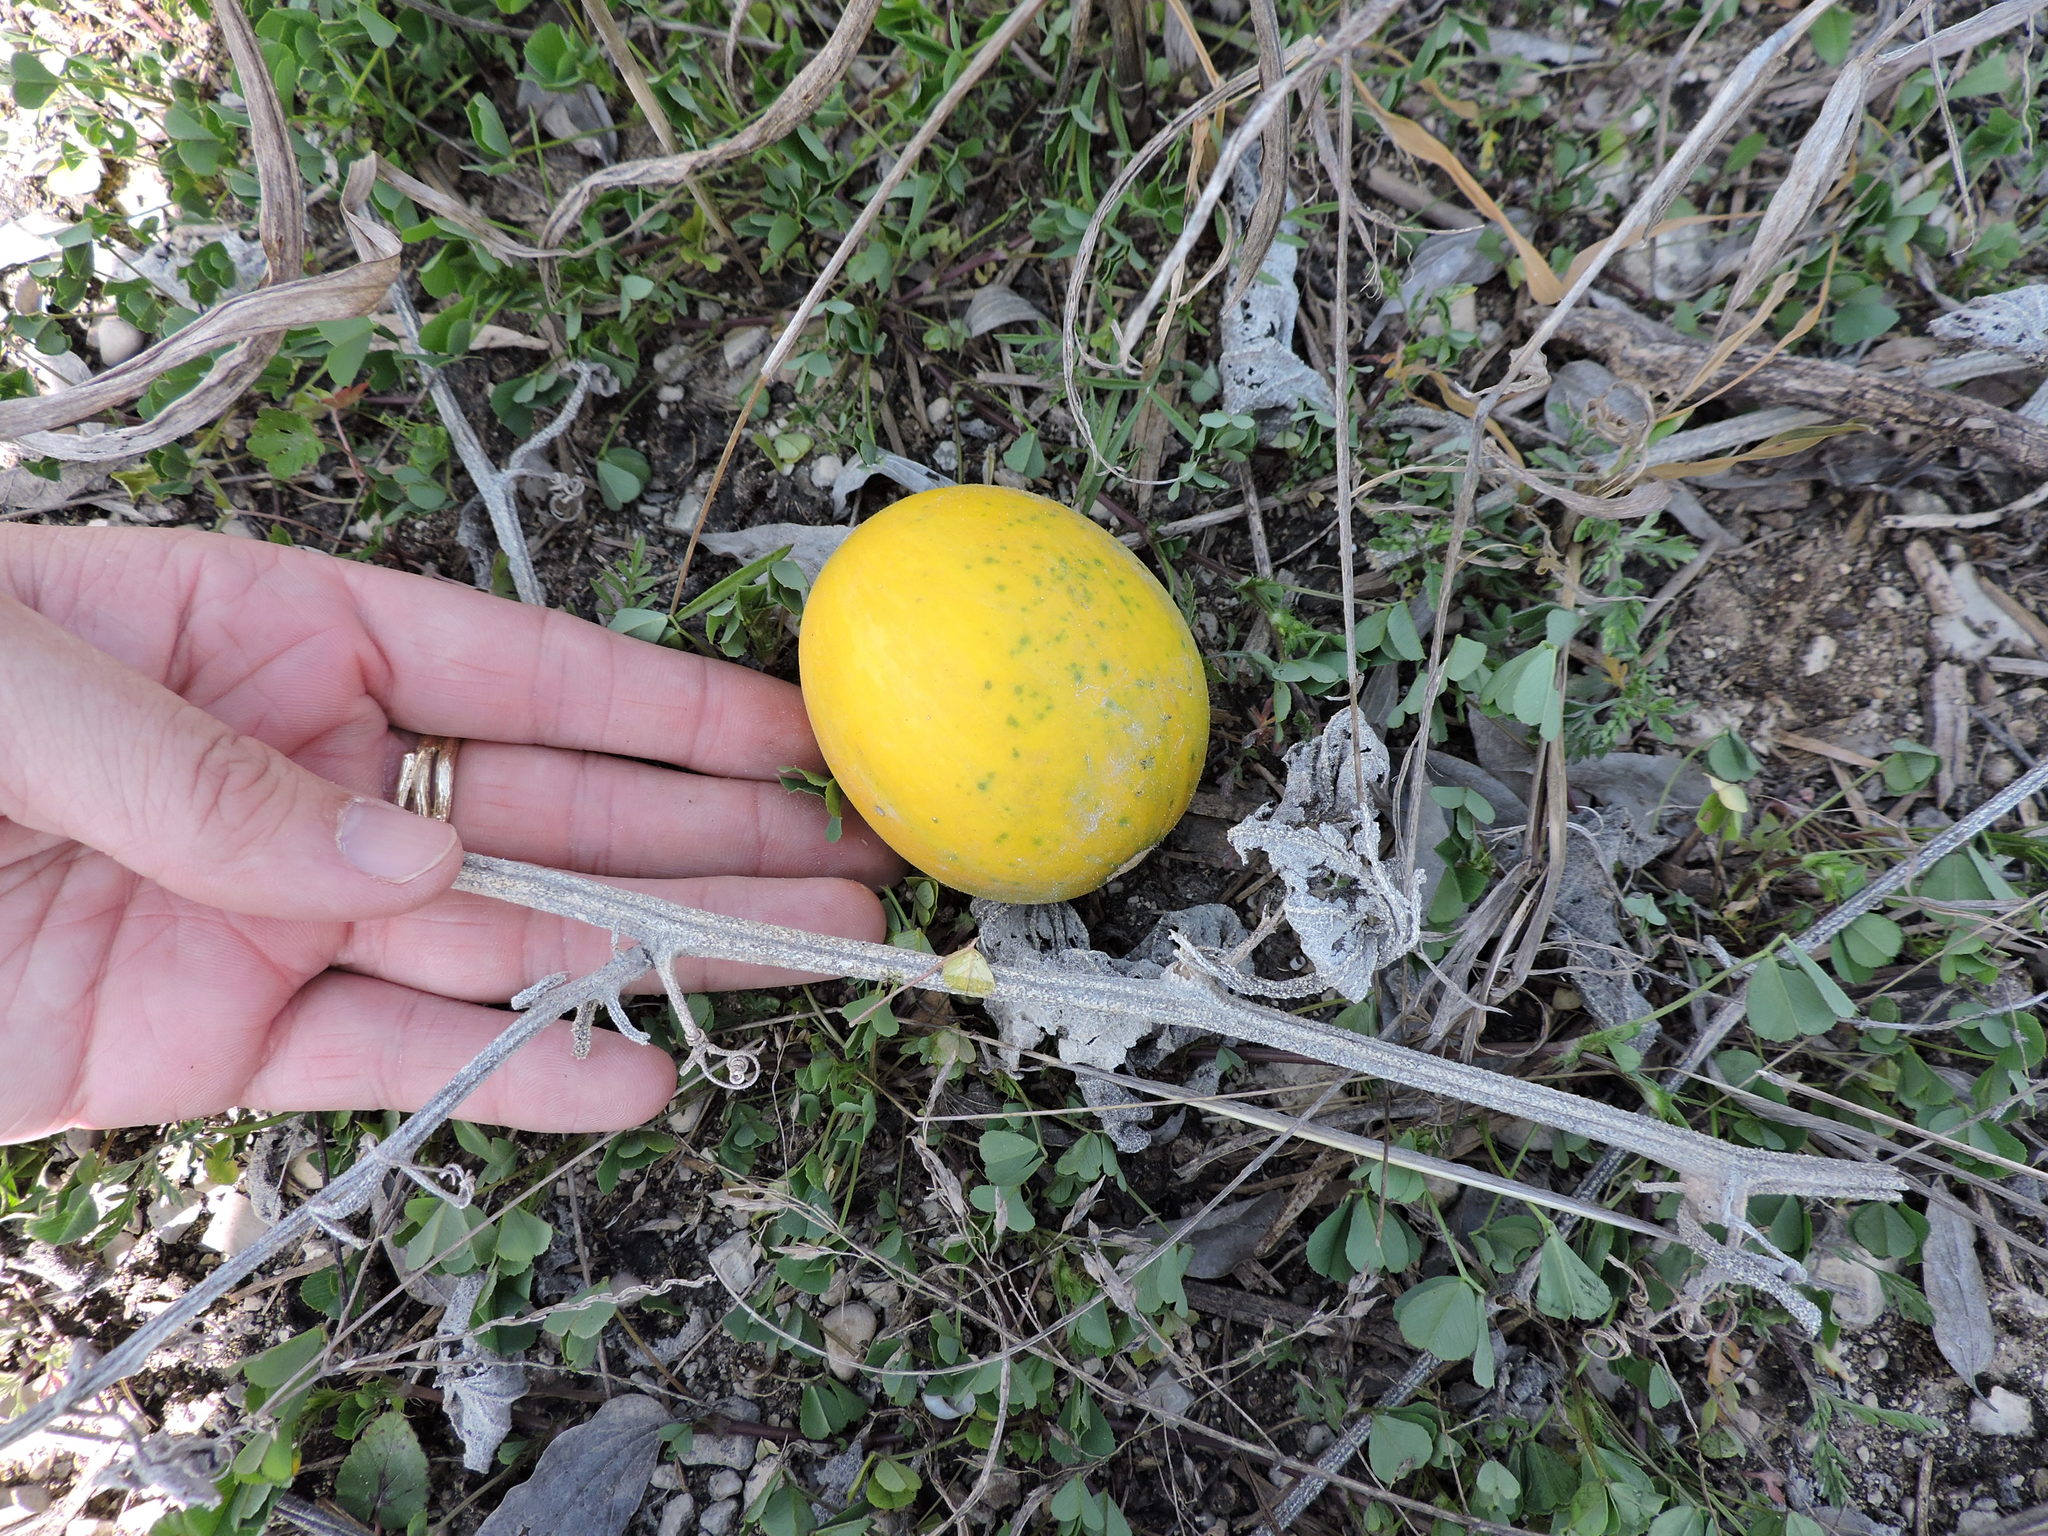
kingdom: Plantae
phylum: Tracheophyta
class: Magnoliopsida
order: Cucurbitales
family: Cucurbitaceae
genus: Cucurbita
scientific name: Cucurbita foetidissima
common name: Buffalo gourd
